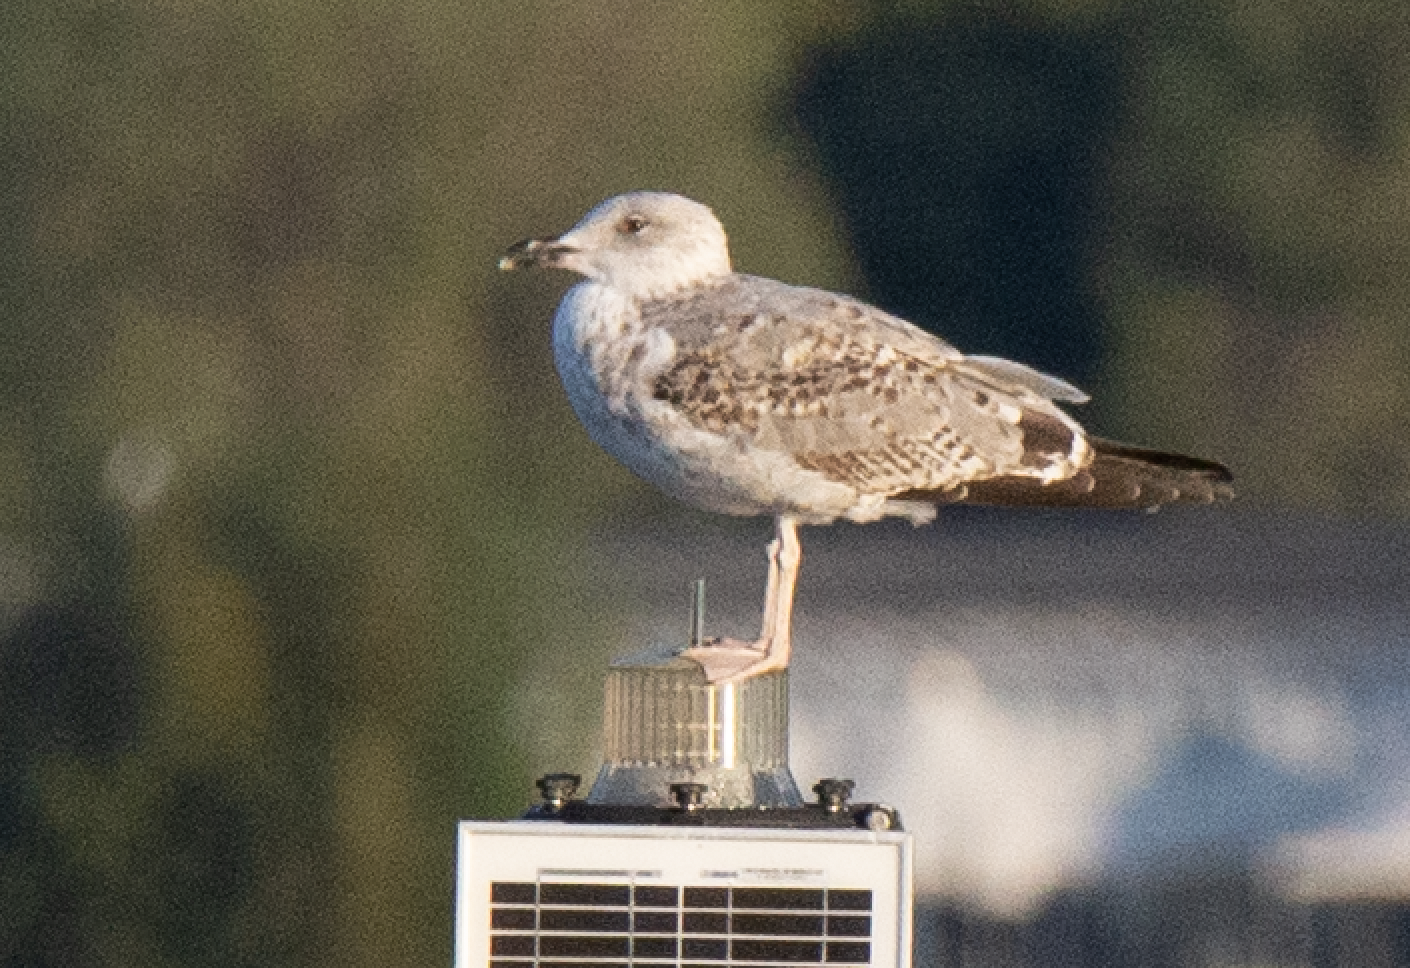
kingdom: Animalia
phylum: Chordata
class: Aves
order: Charadriiformes
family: Laridae
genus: Larus
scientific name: Larus michahellis
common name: Yellow-legged gull
